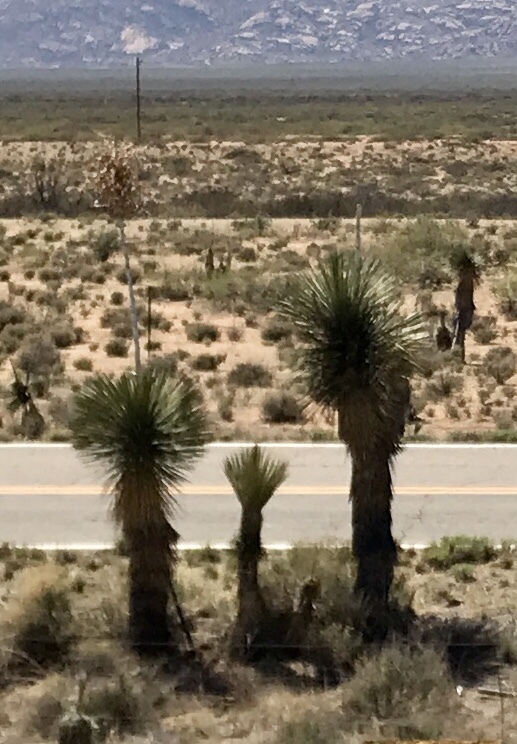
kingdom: Plantae
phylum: Tracheophyta
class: Liliopsida
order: Asparagales
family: Asparagaceae
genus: Yucca
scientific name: Yucca elata
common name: Palmella
